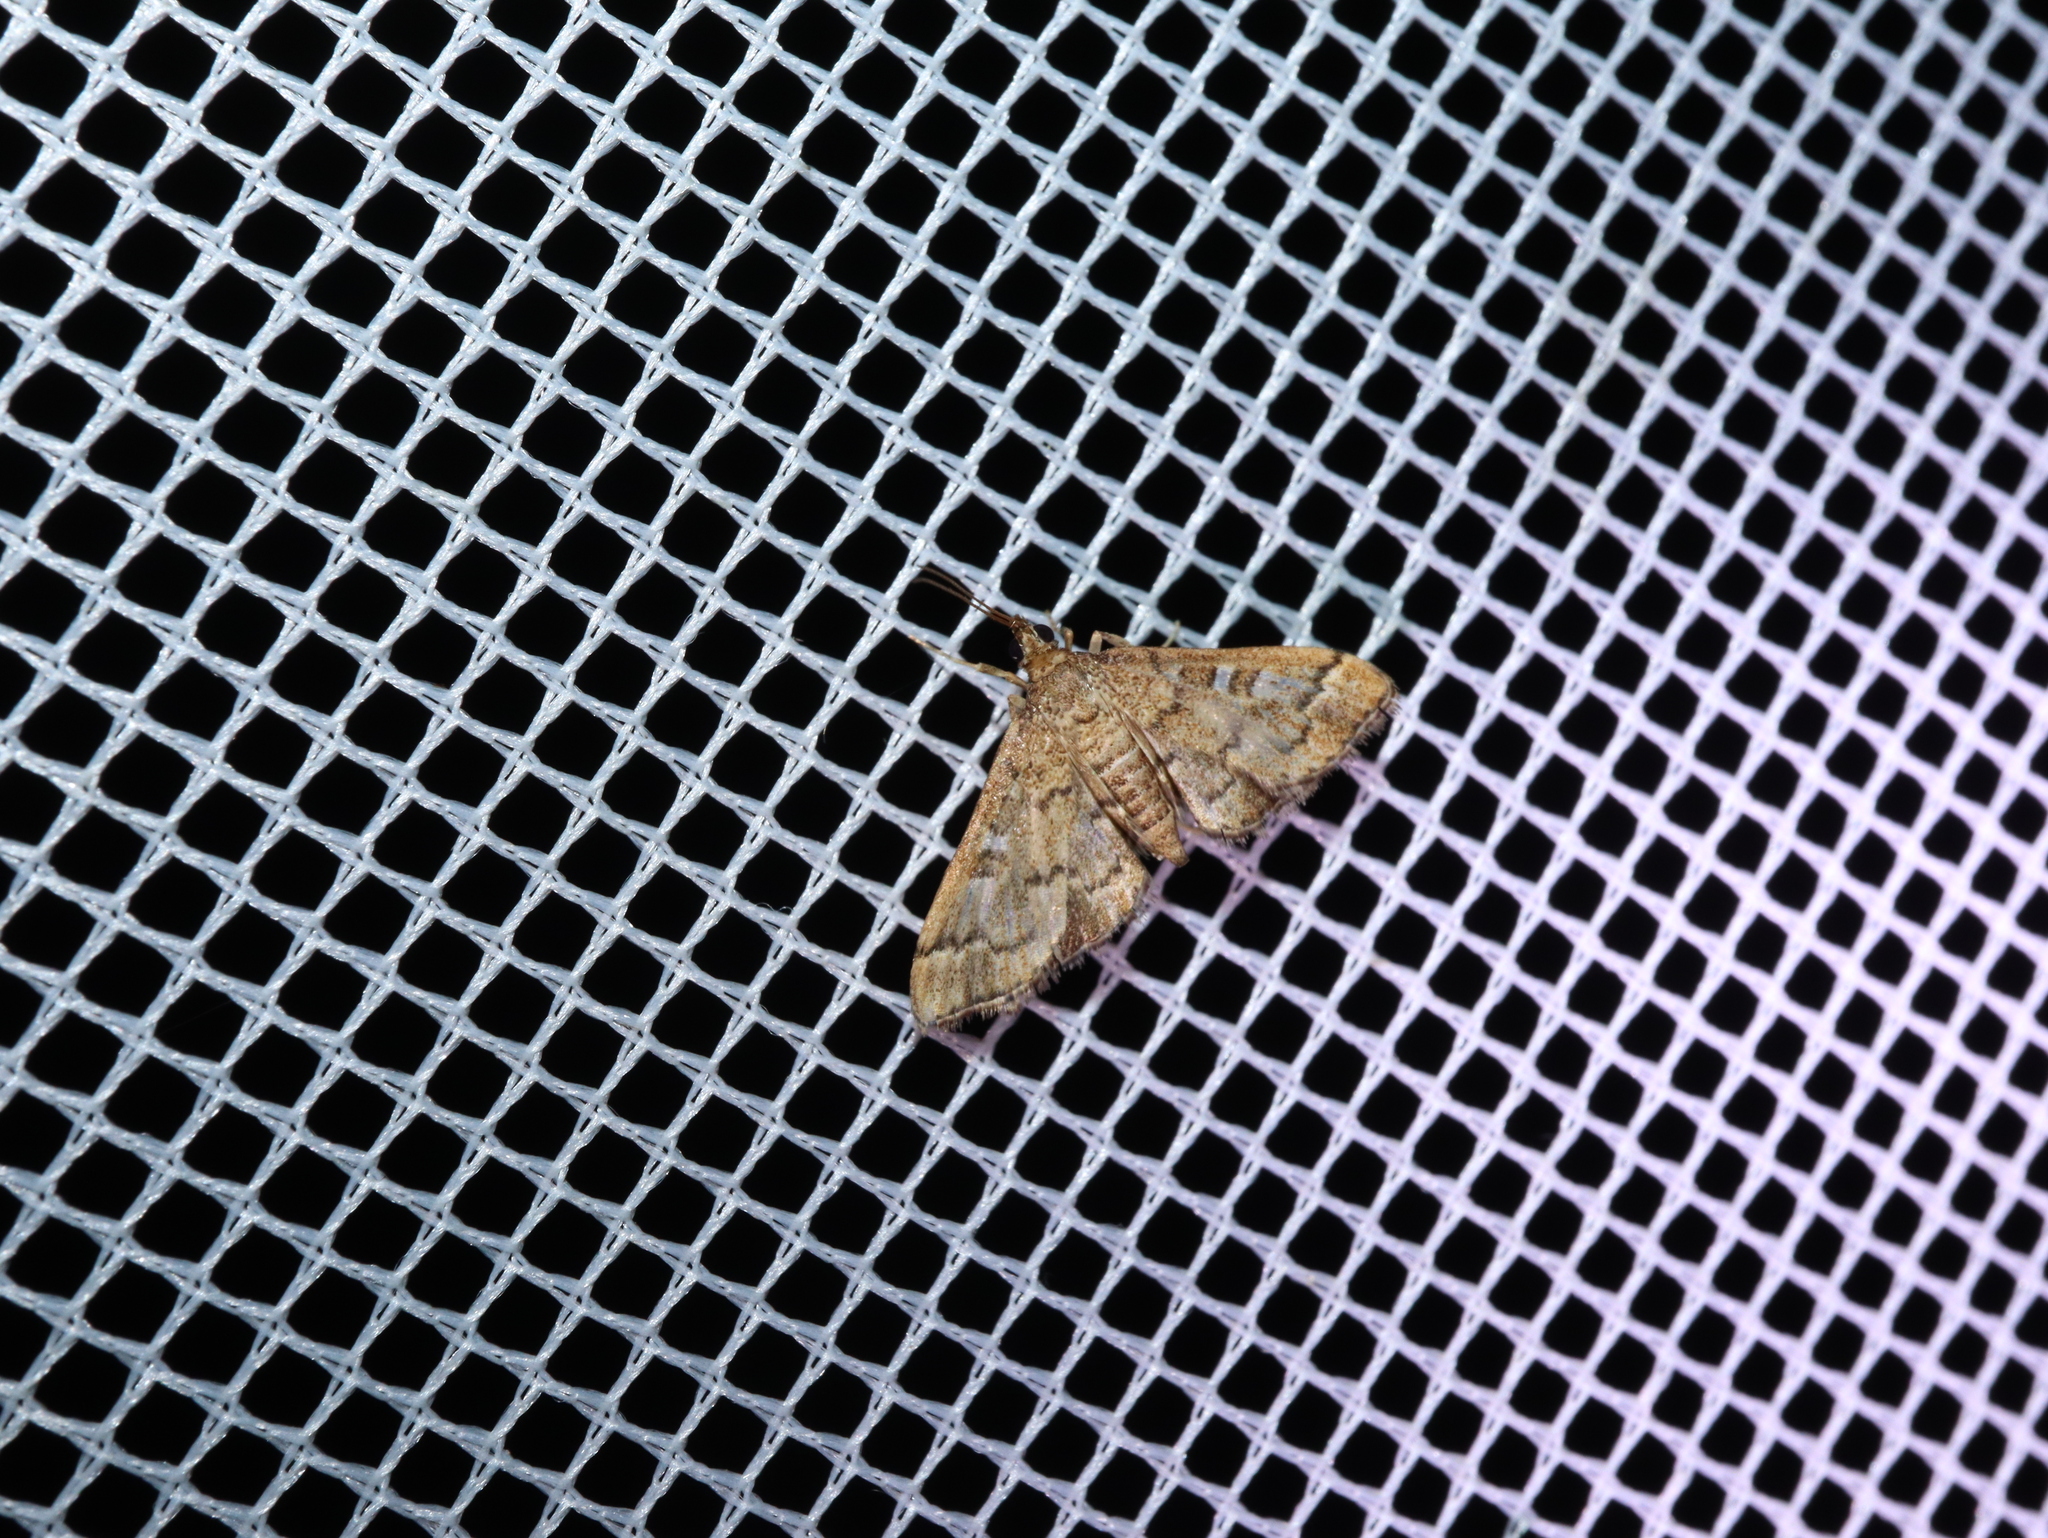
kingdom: Animalia
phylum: Arthropoda
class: Insecta
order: Lepidoptera
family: Crambidae
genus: Nacoleia
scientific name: Nacoleia rhoeoalis
